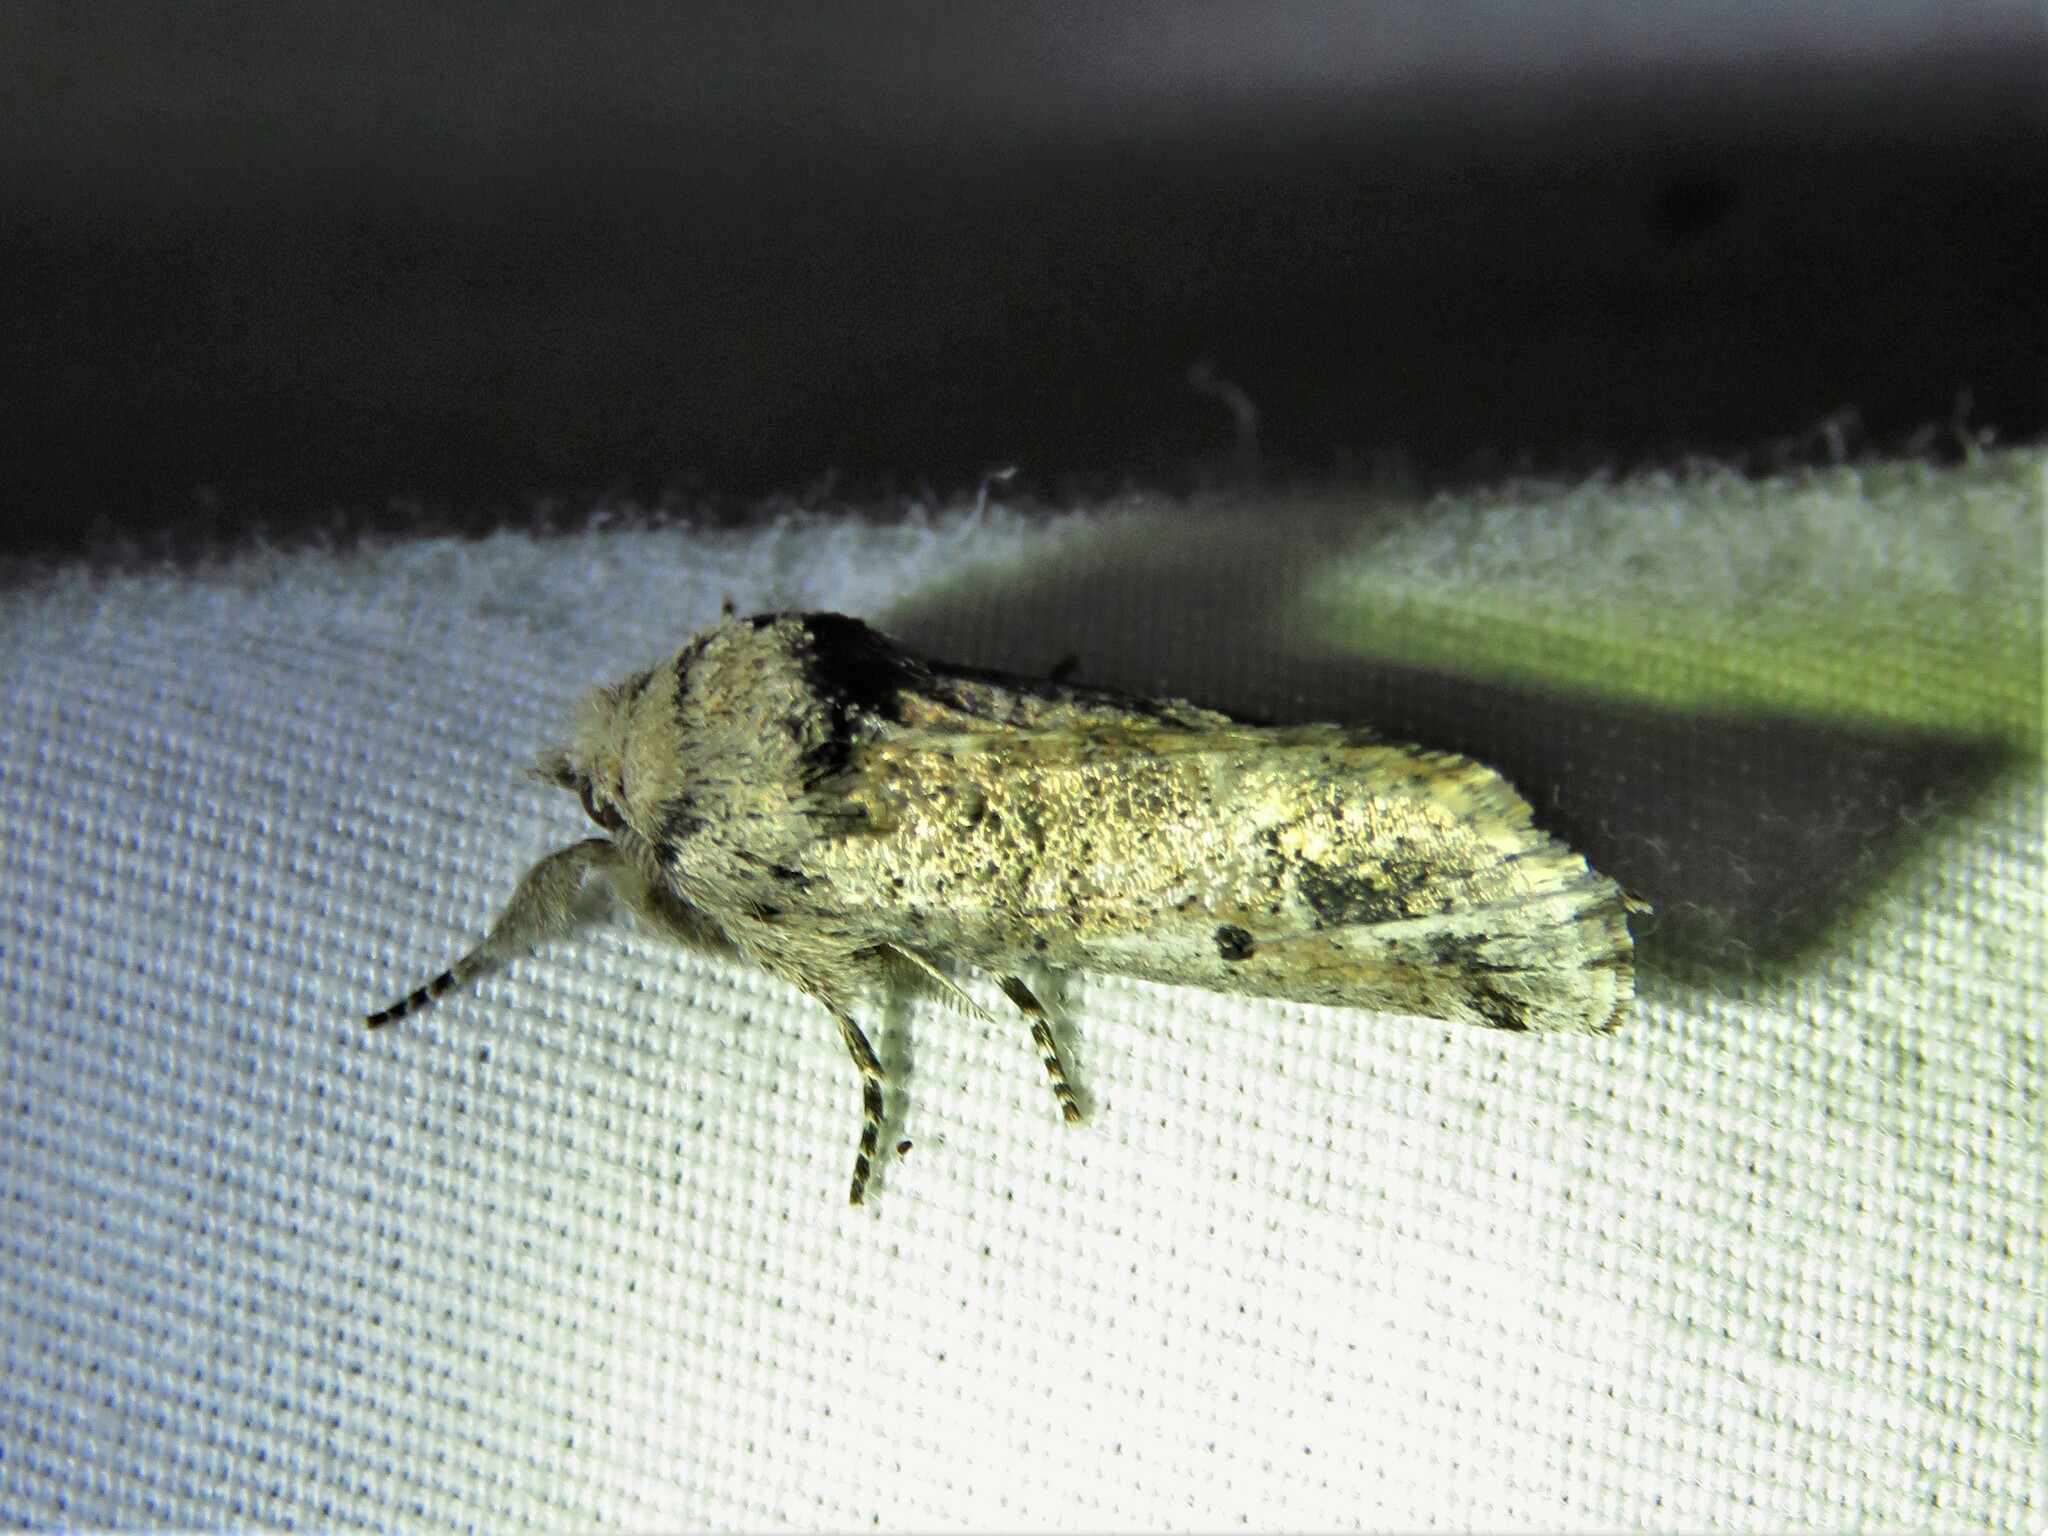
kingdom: Animalia
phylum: Arthropoda
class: Insecta
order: Lepidoptera
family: Erebidae
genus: Aon
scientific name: Aon noctuiformis
